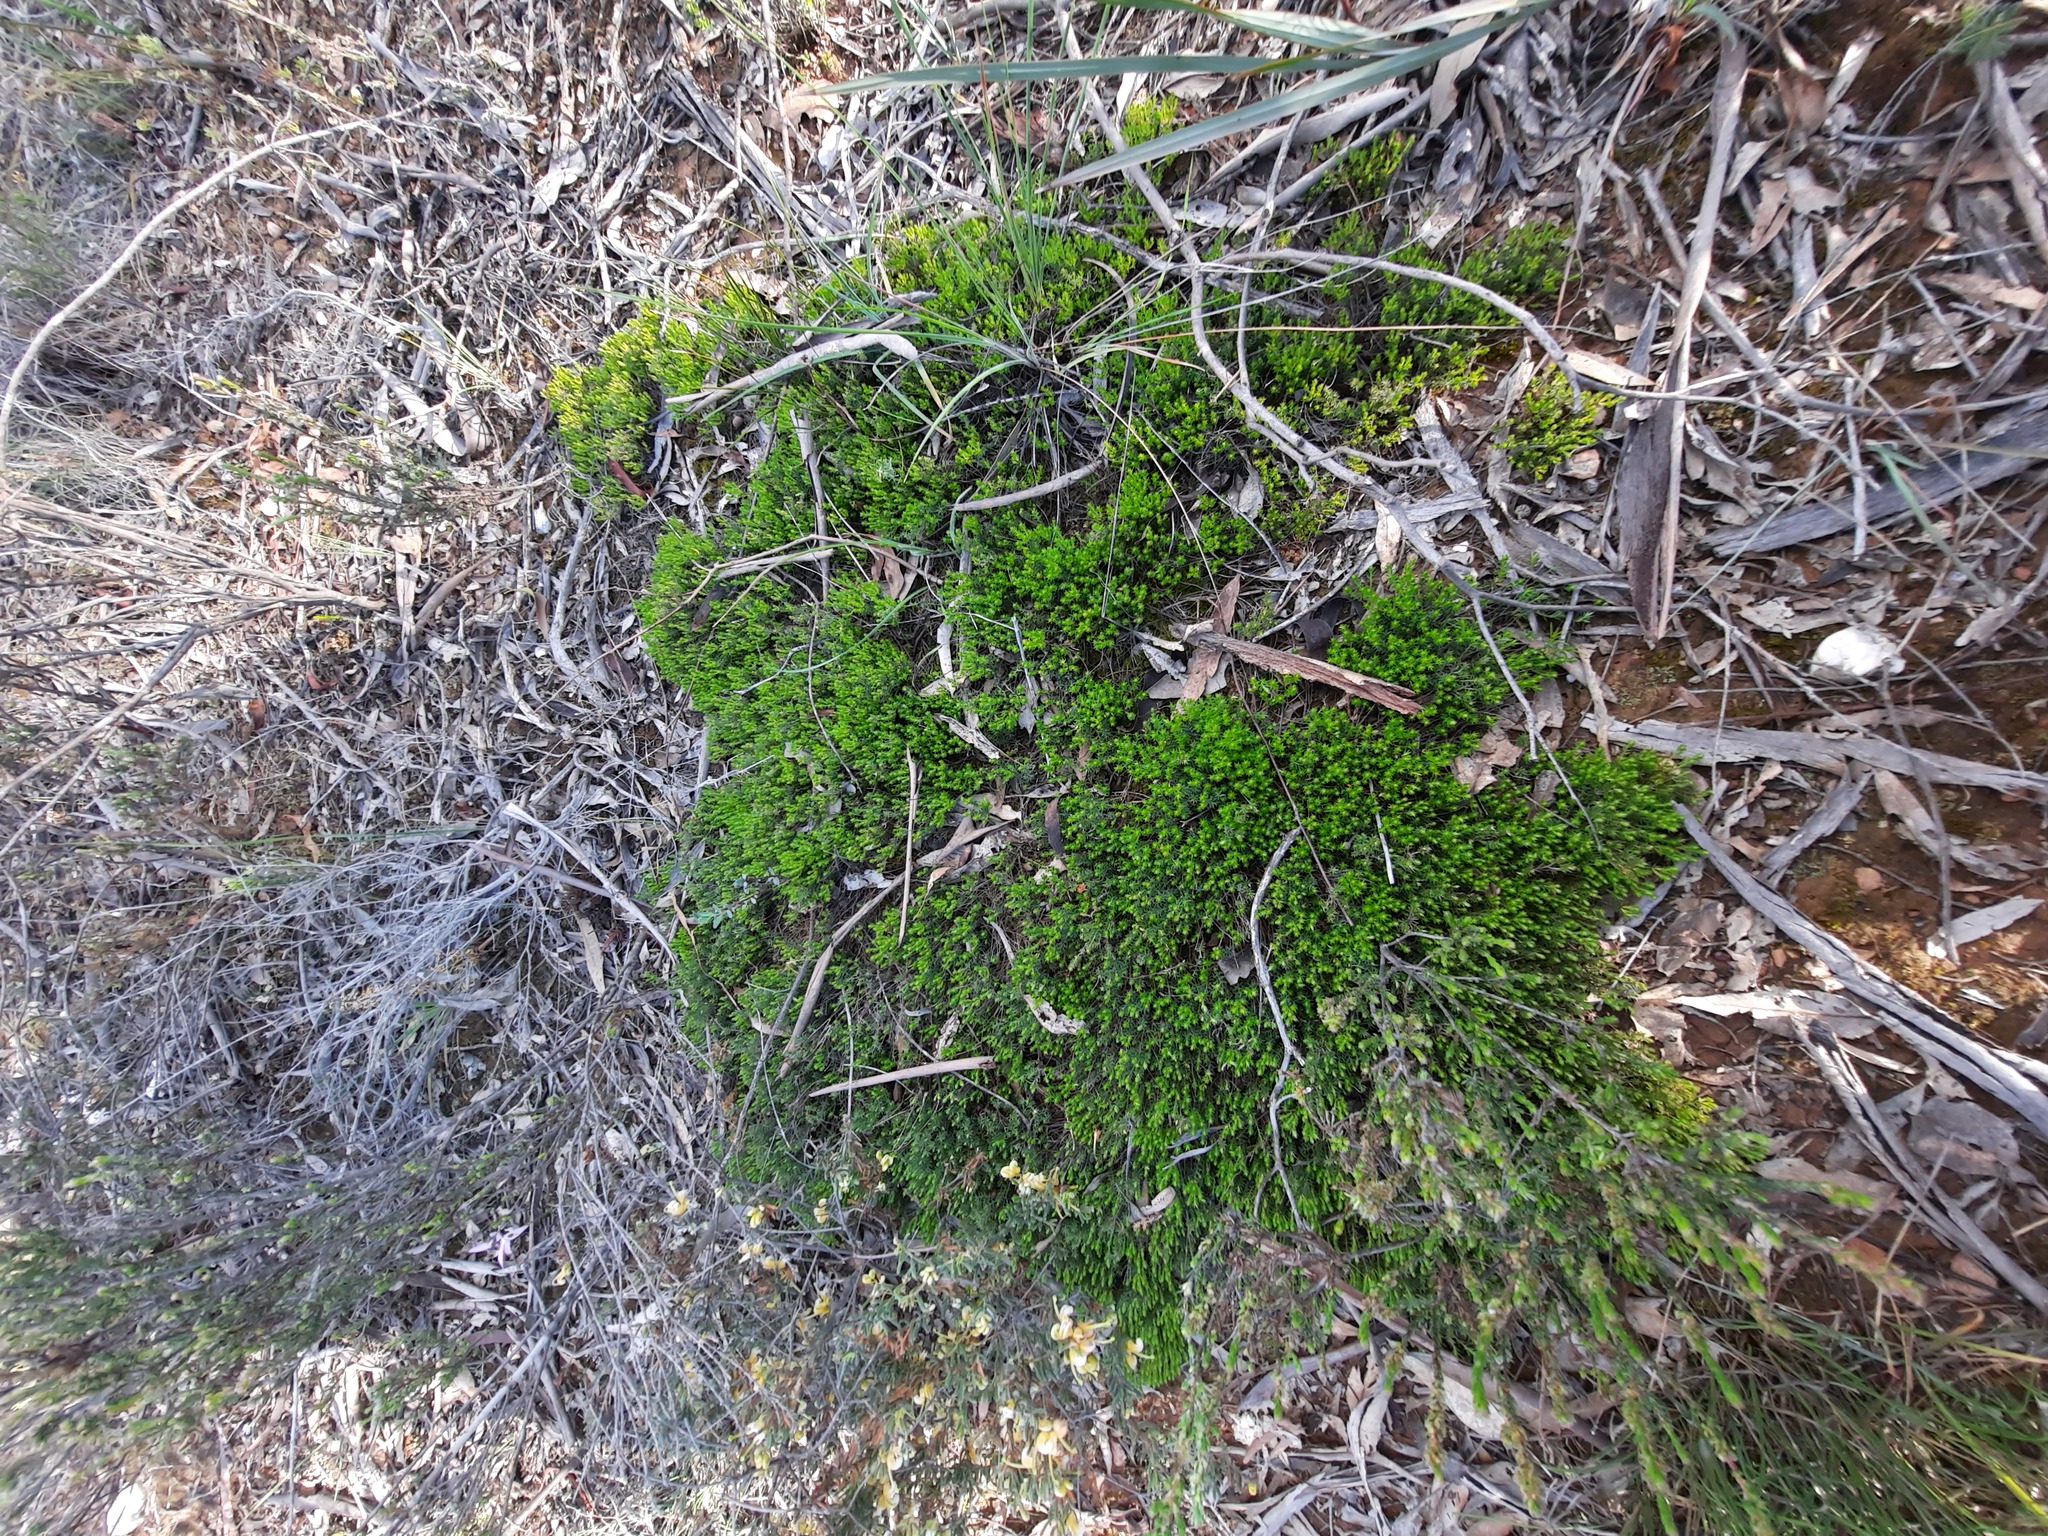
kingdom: Plantae
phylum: Tracheophyta
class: Magnoliopsida
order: Ericales
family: Ericaceae
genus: Acrotriche
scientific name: Acrotriche serrulata
